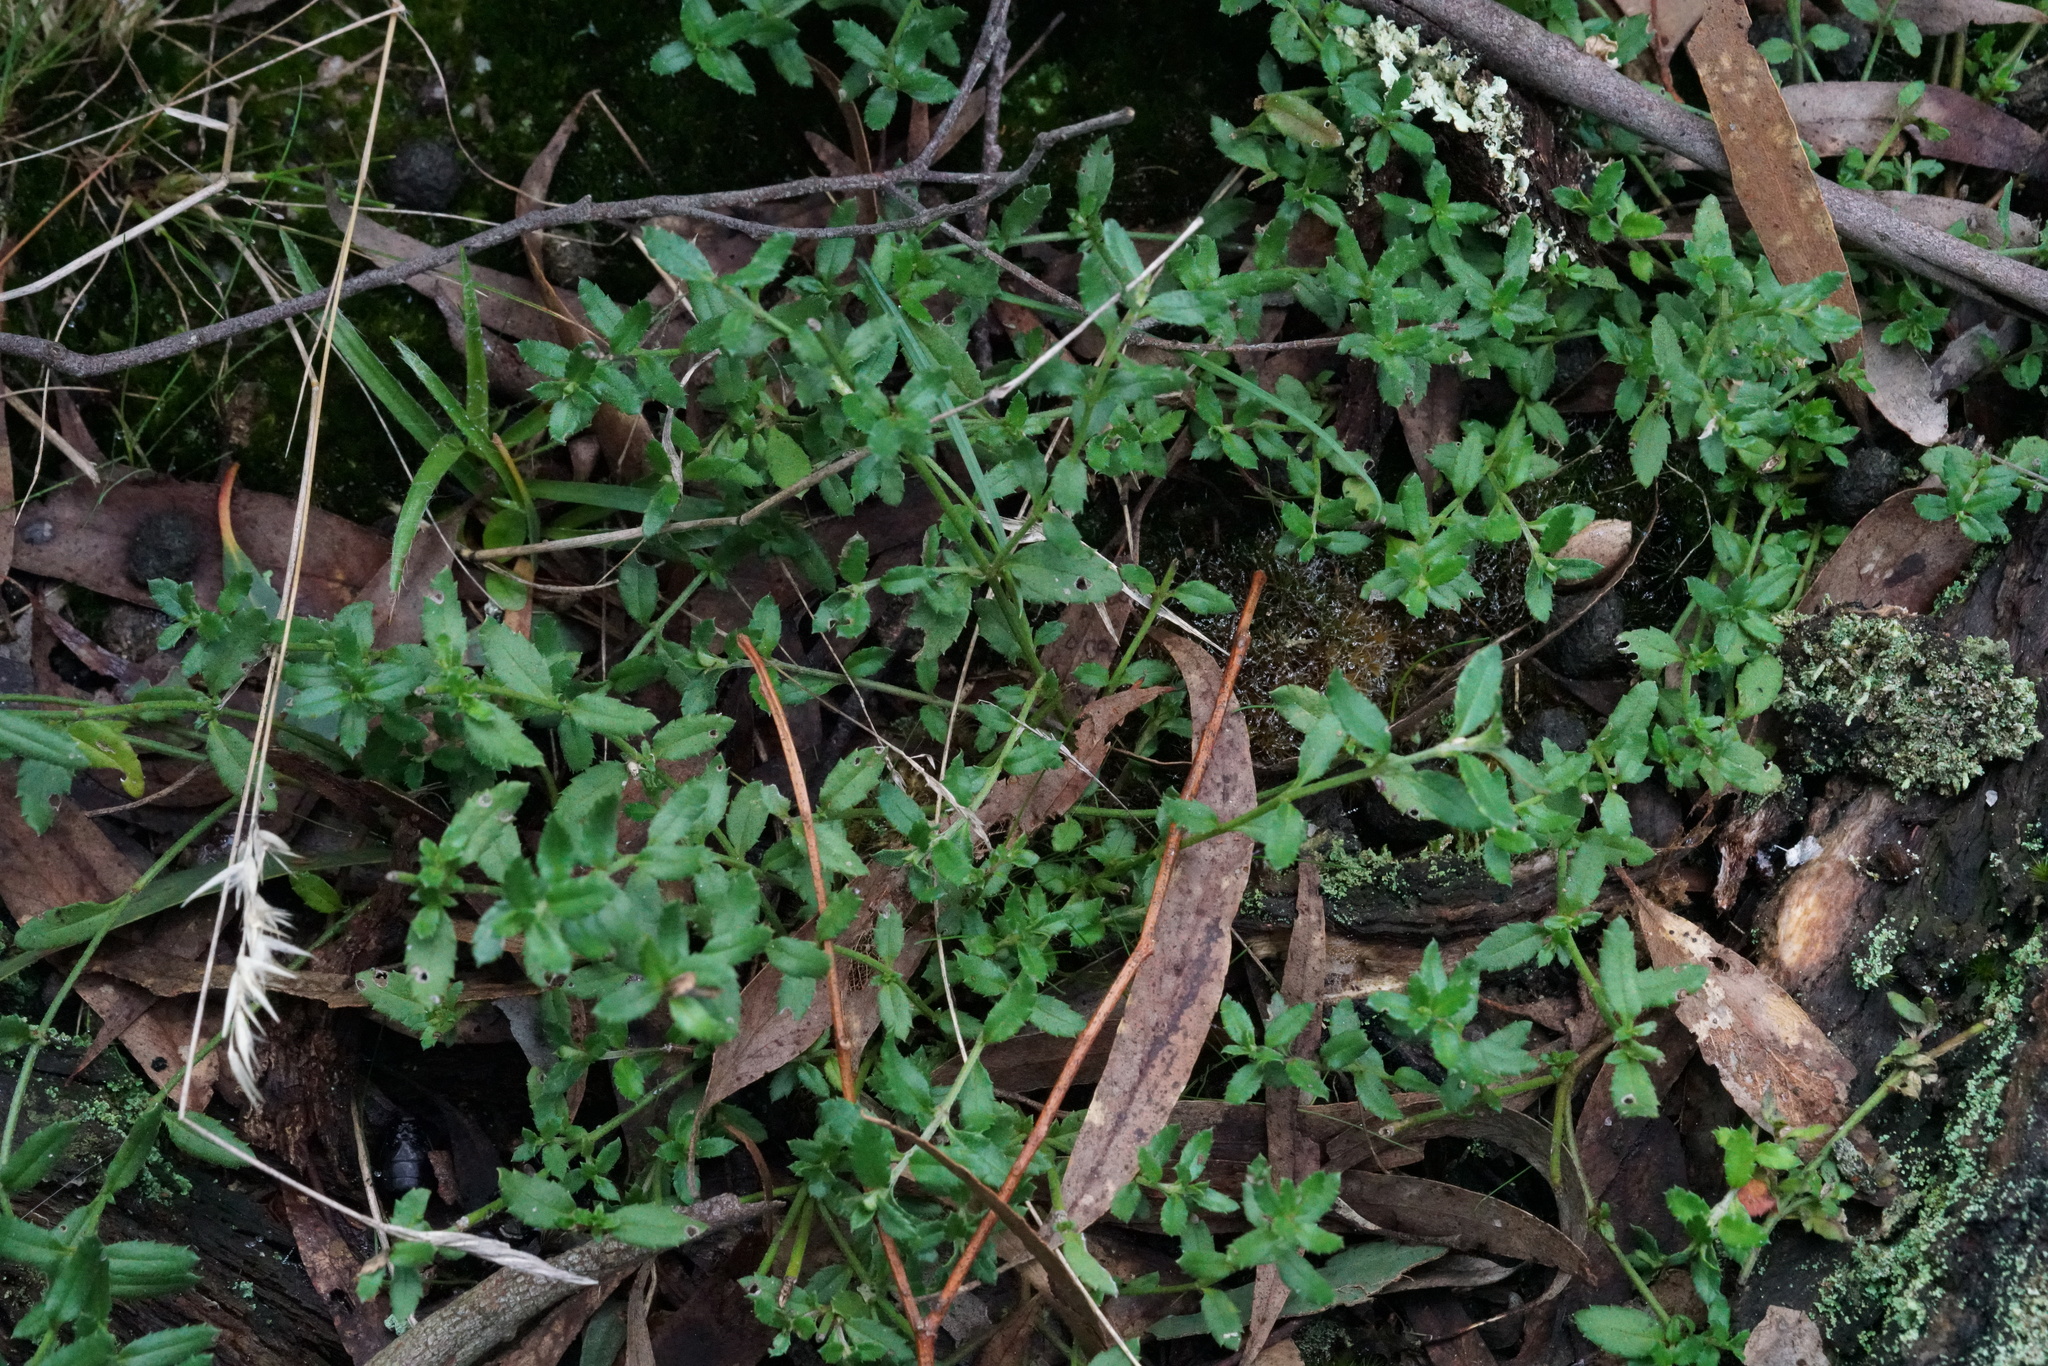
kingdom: Plantae
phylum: Tracheophyta
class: Magnoliopsida
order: Saxifragales
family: Haloragaceae
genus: Gonocarpus
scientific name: Gonocarpus tetragynus
